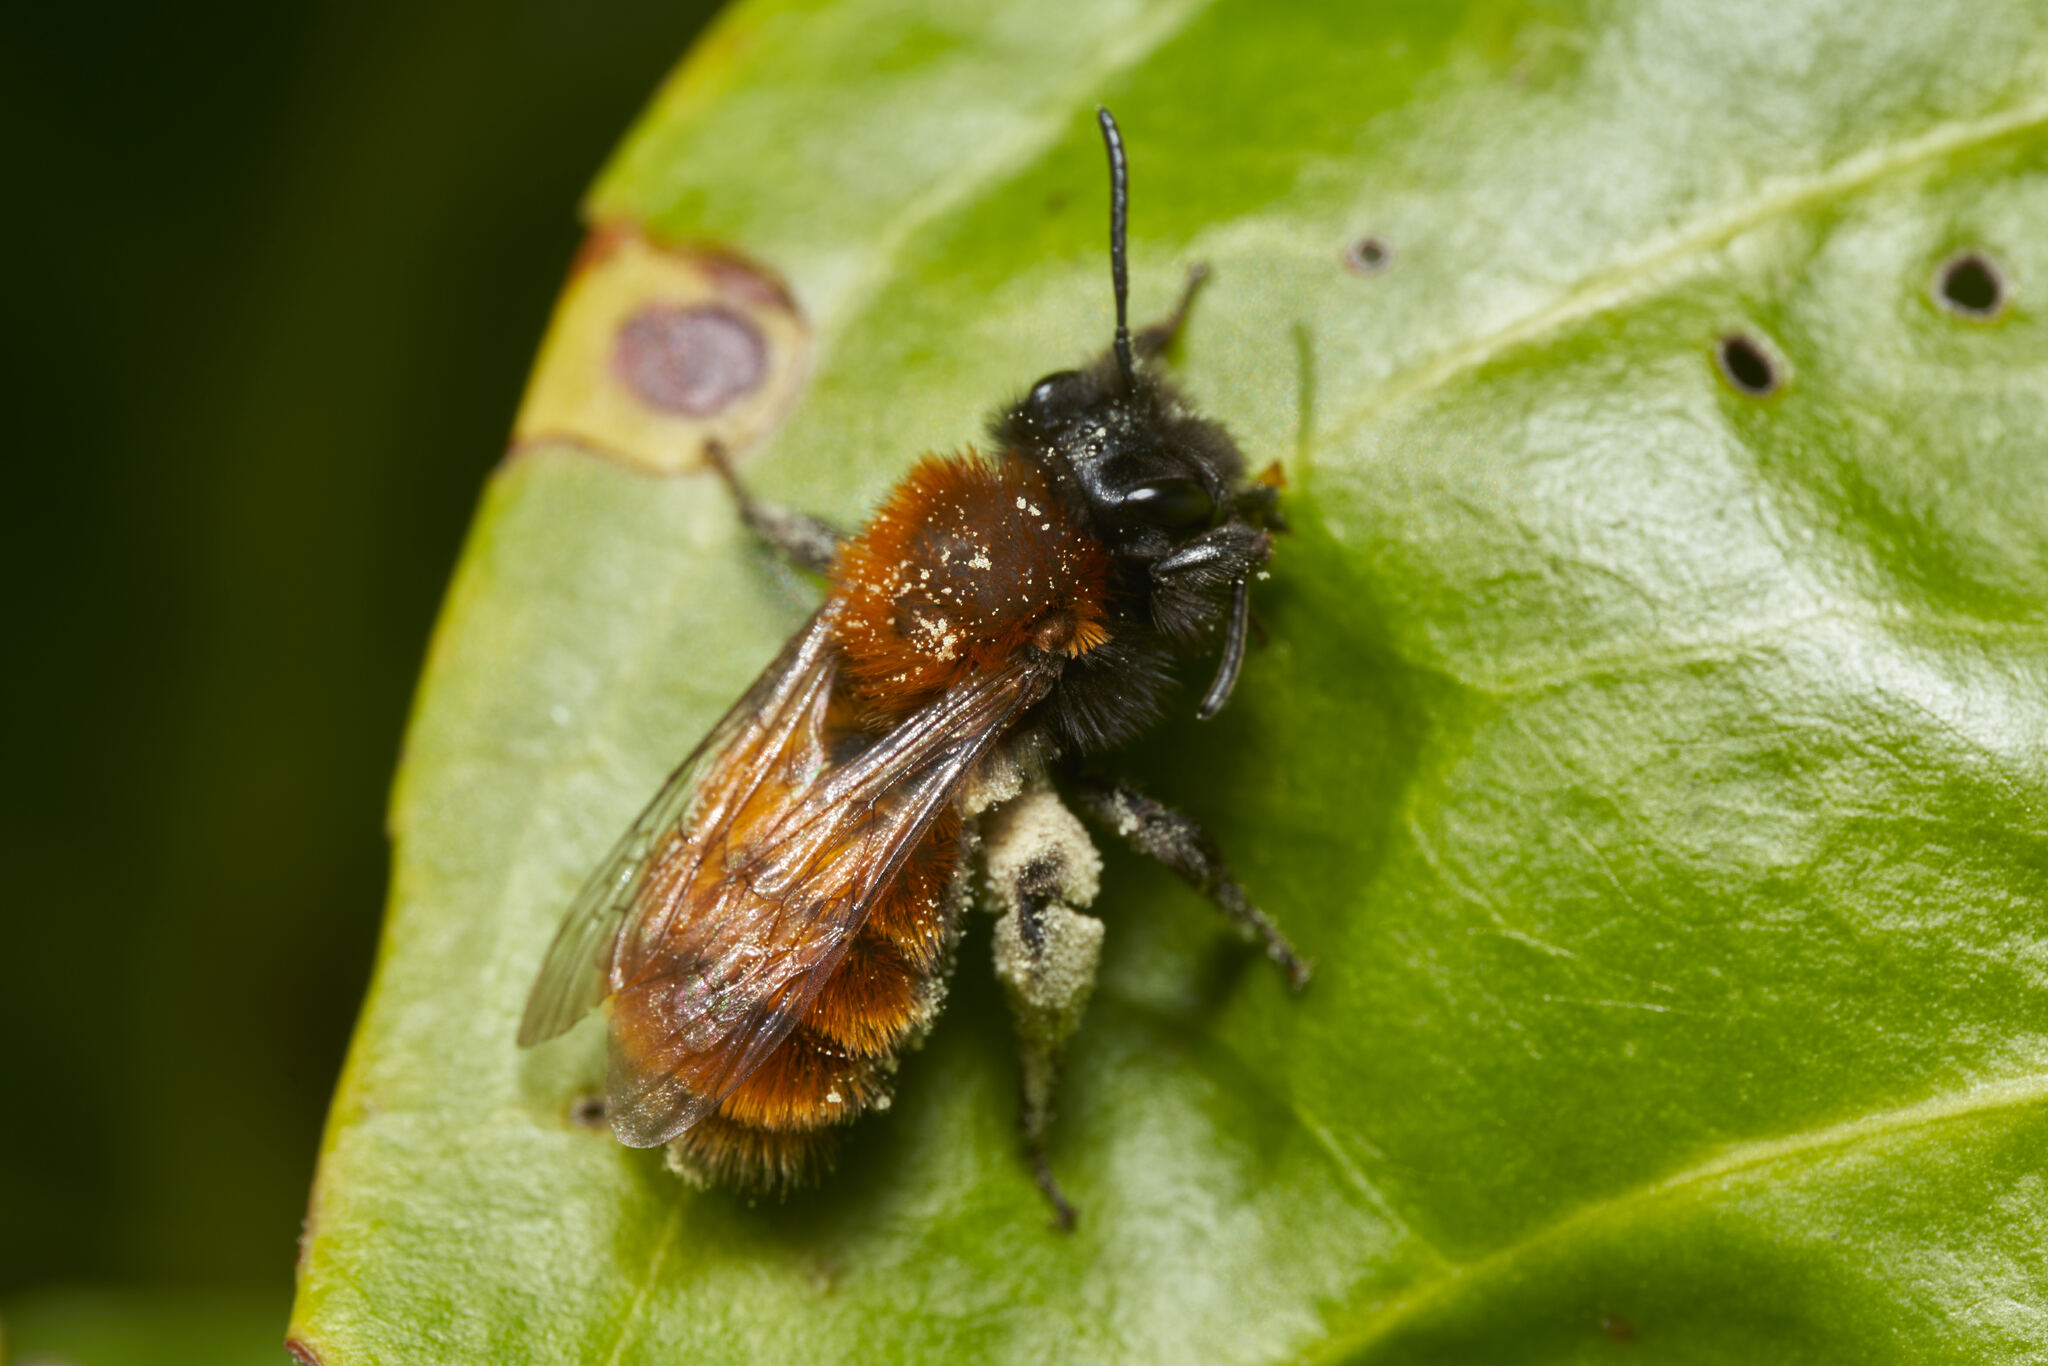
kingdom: Animalia
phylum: Arthropoda
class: Insecta
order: Hymenoptera
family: Andrenidae
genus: Andrena
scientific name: Andrena fulva
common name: Tawny mining bee
